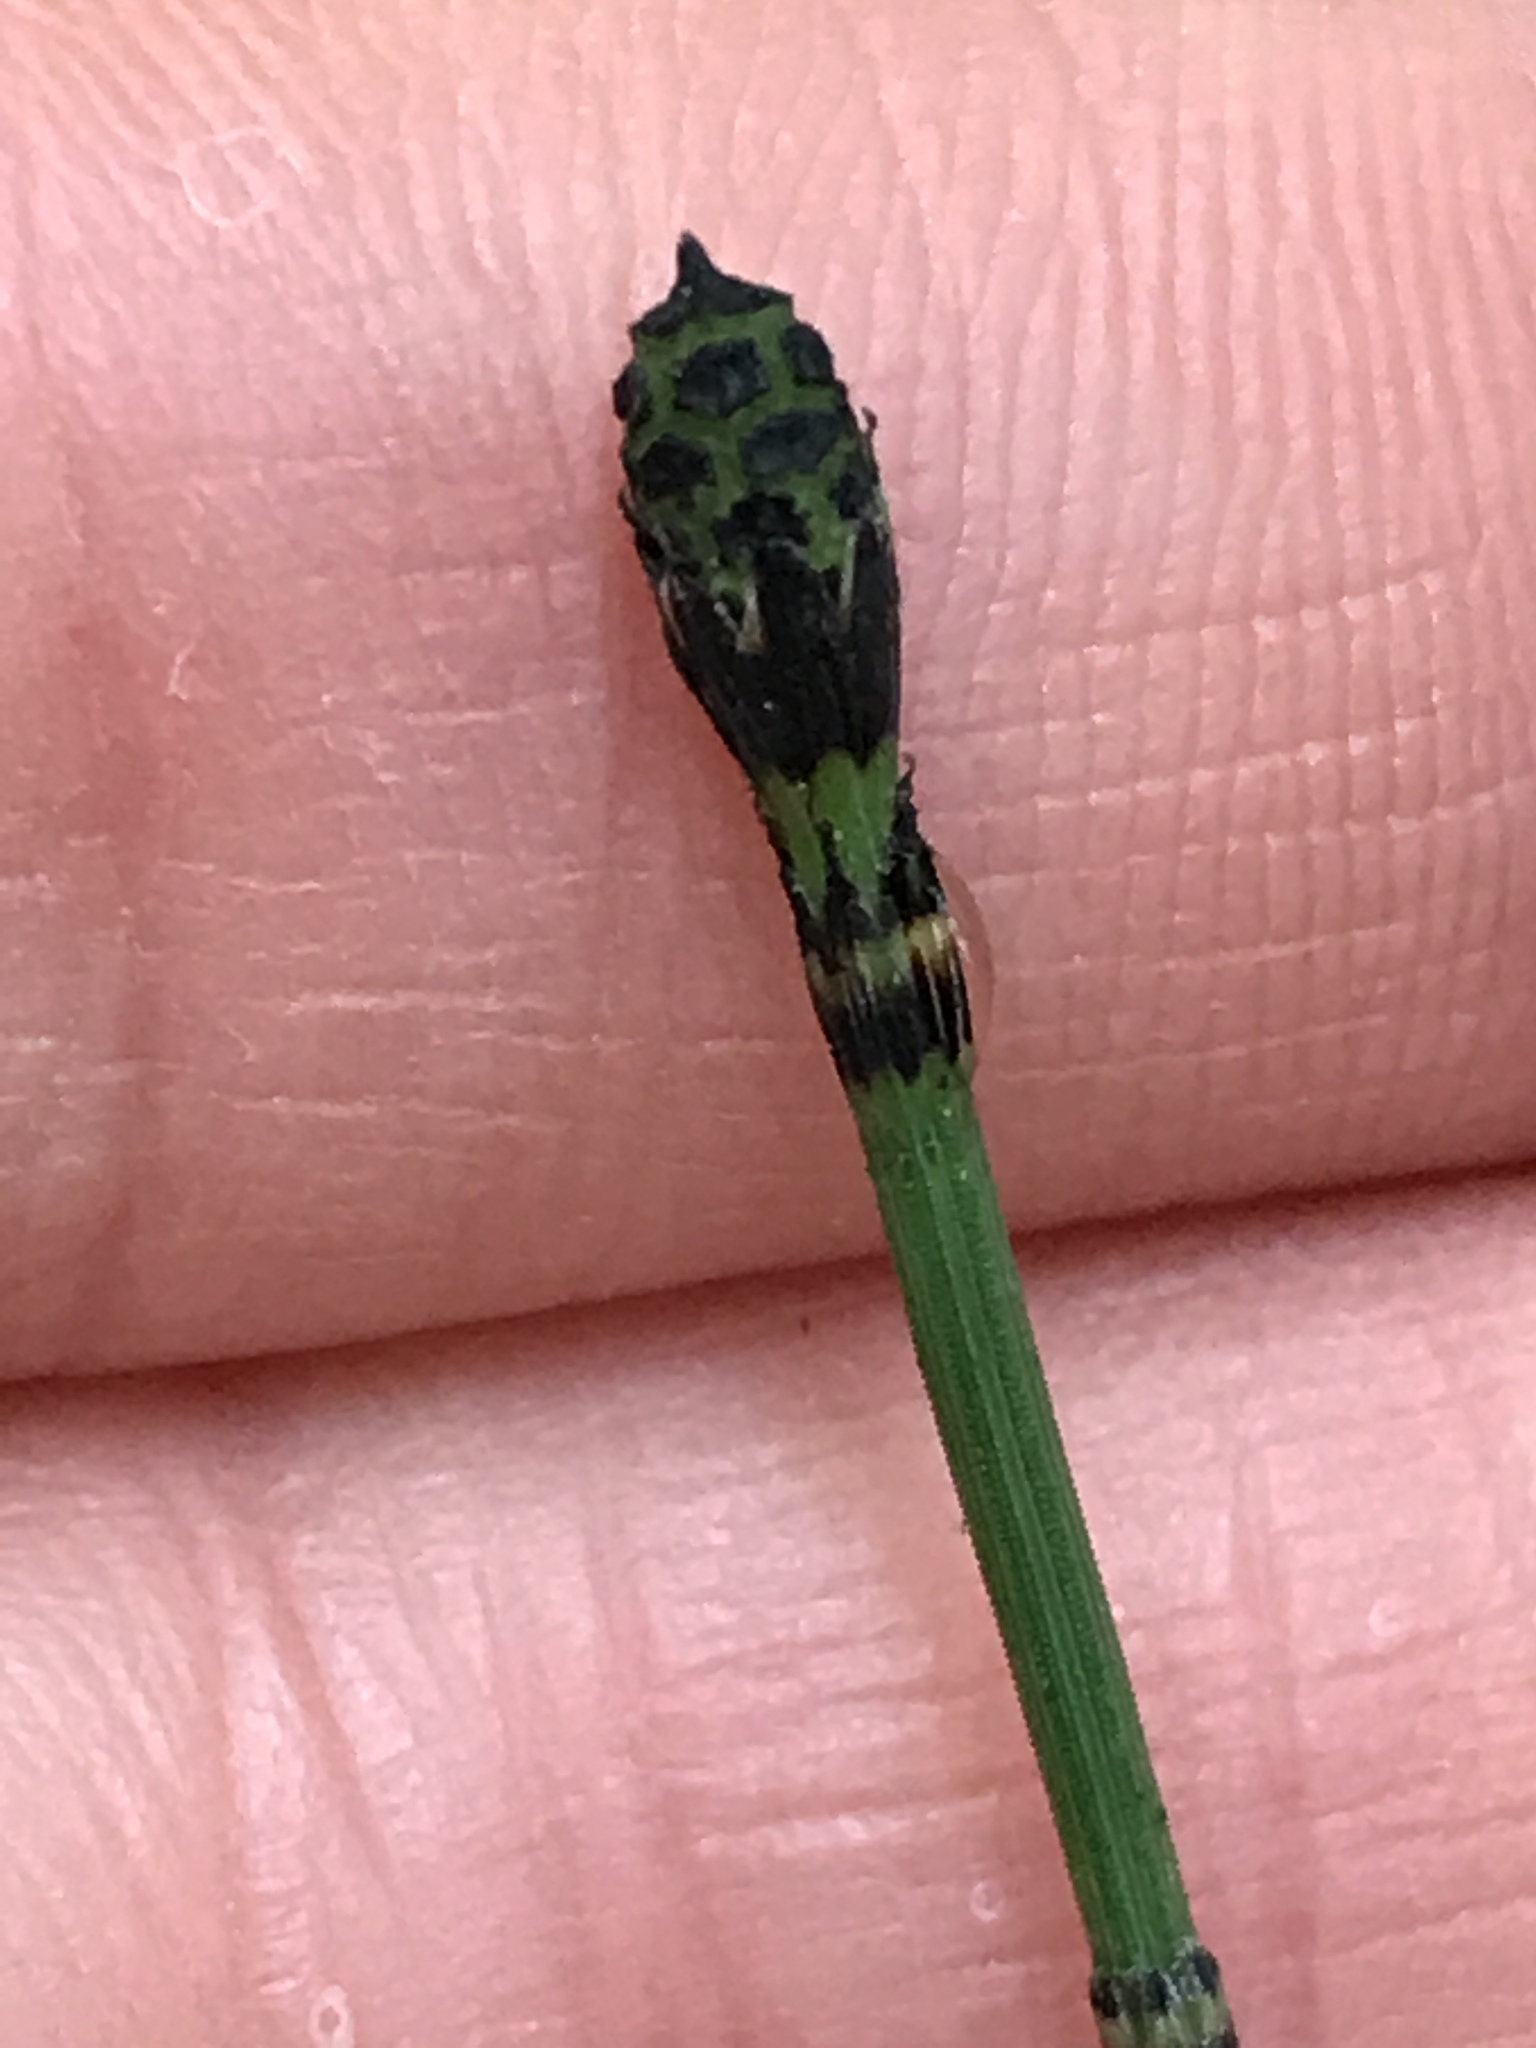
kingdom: Plantae
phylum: Tracheophyta
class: Polypodiopsida
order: Equisetales
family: Equisetaceae
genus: Equisetum
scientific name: Equisetum hyemale
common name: Rough horsetail
